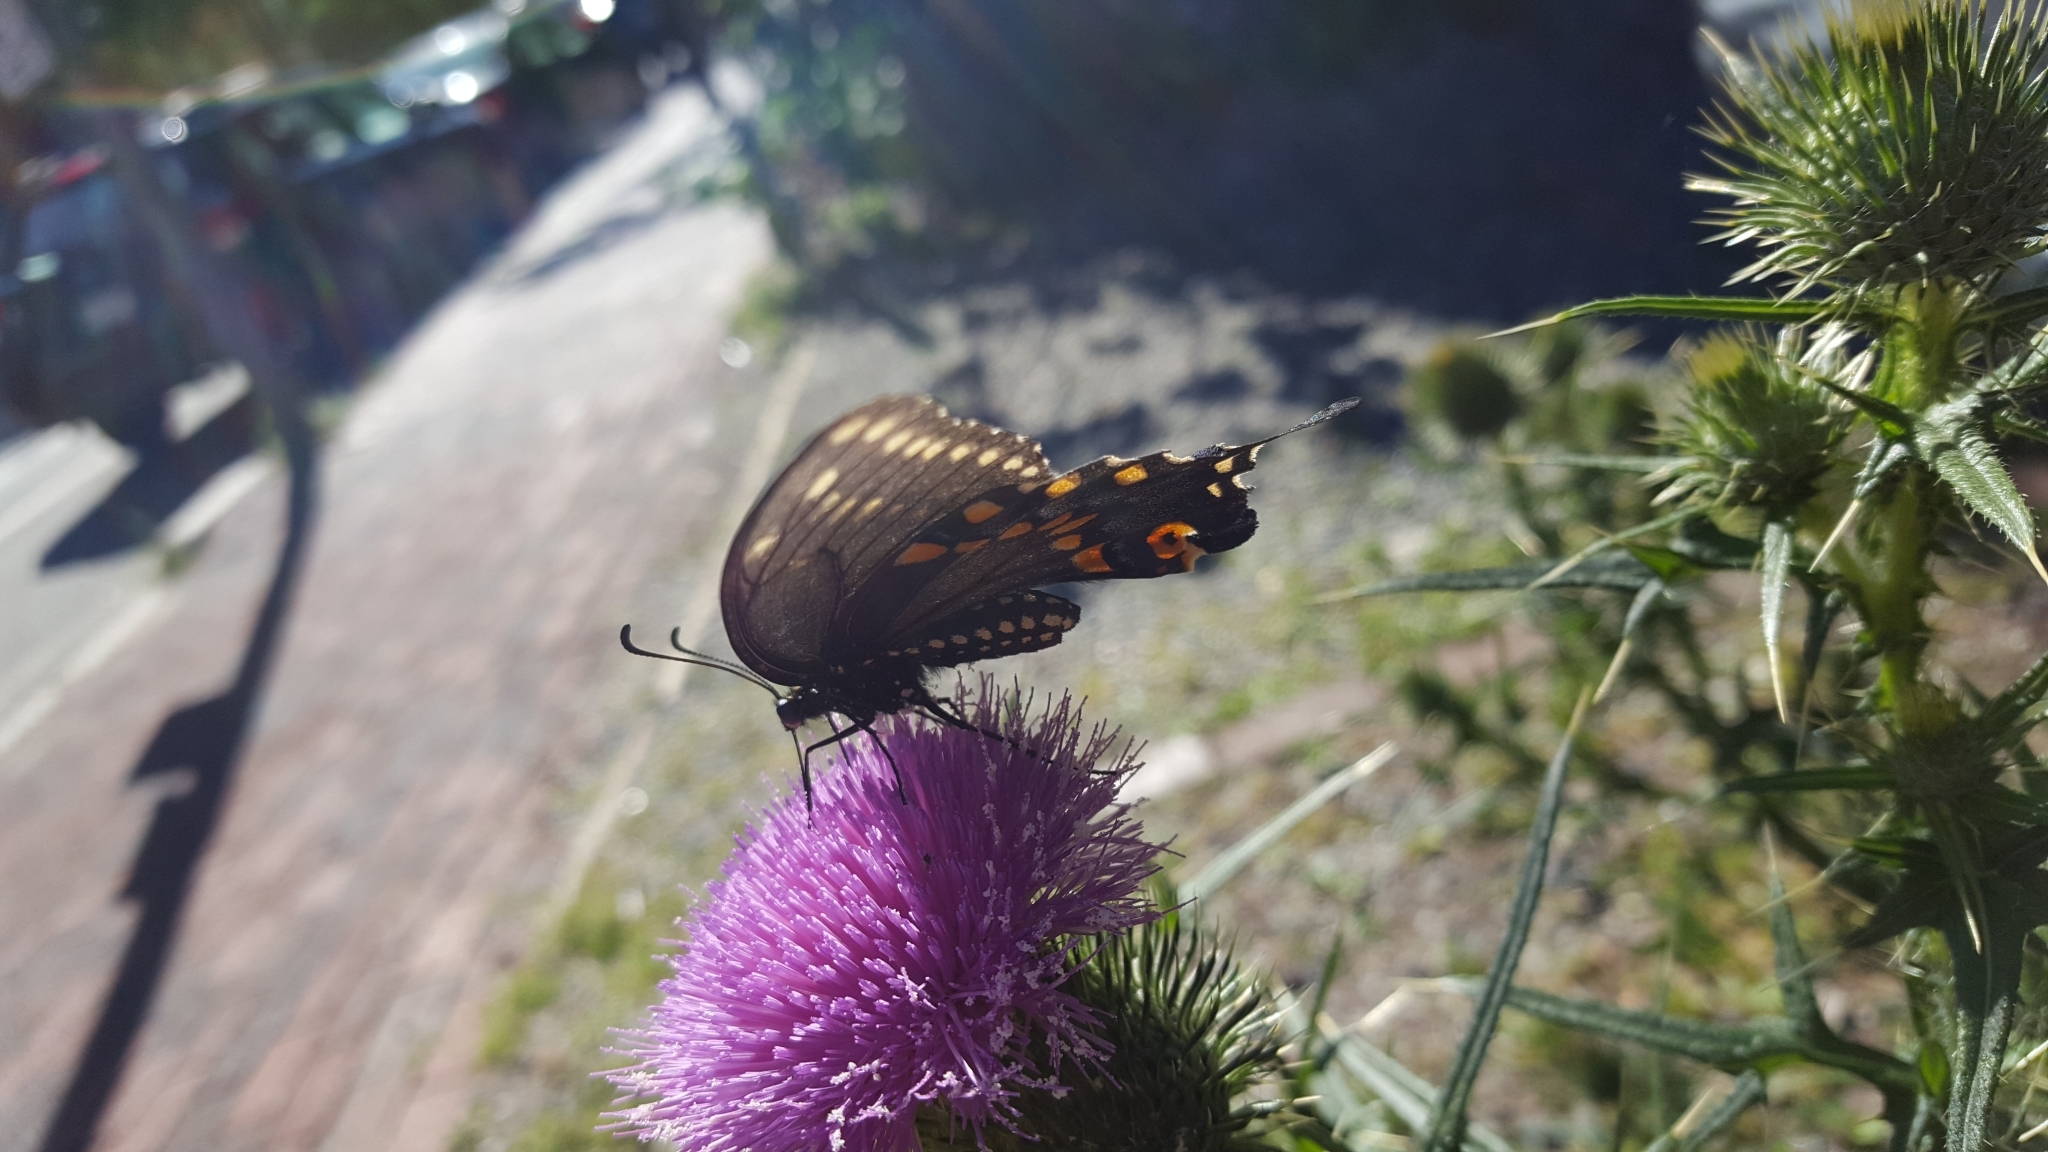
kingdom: Animalia
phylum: Arthropoda
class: Insecta
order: Lepidoptera
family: Papilionidae
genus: Papilio
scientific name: Papilio polyxenes
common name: Black swallowtail
